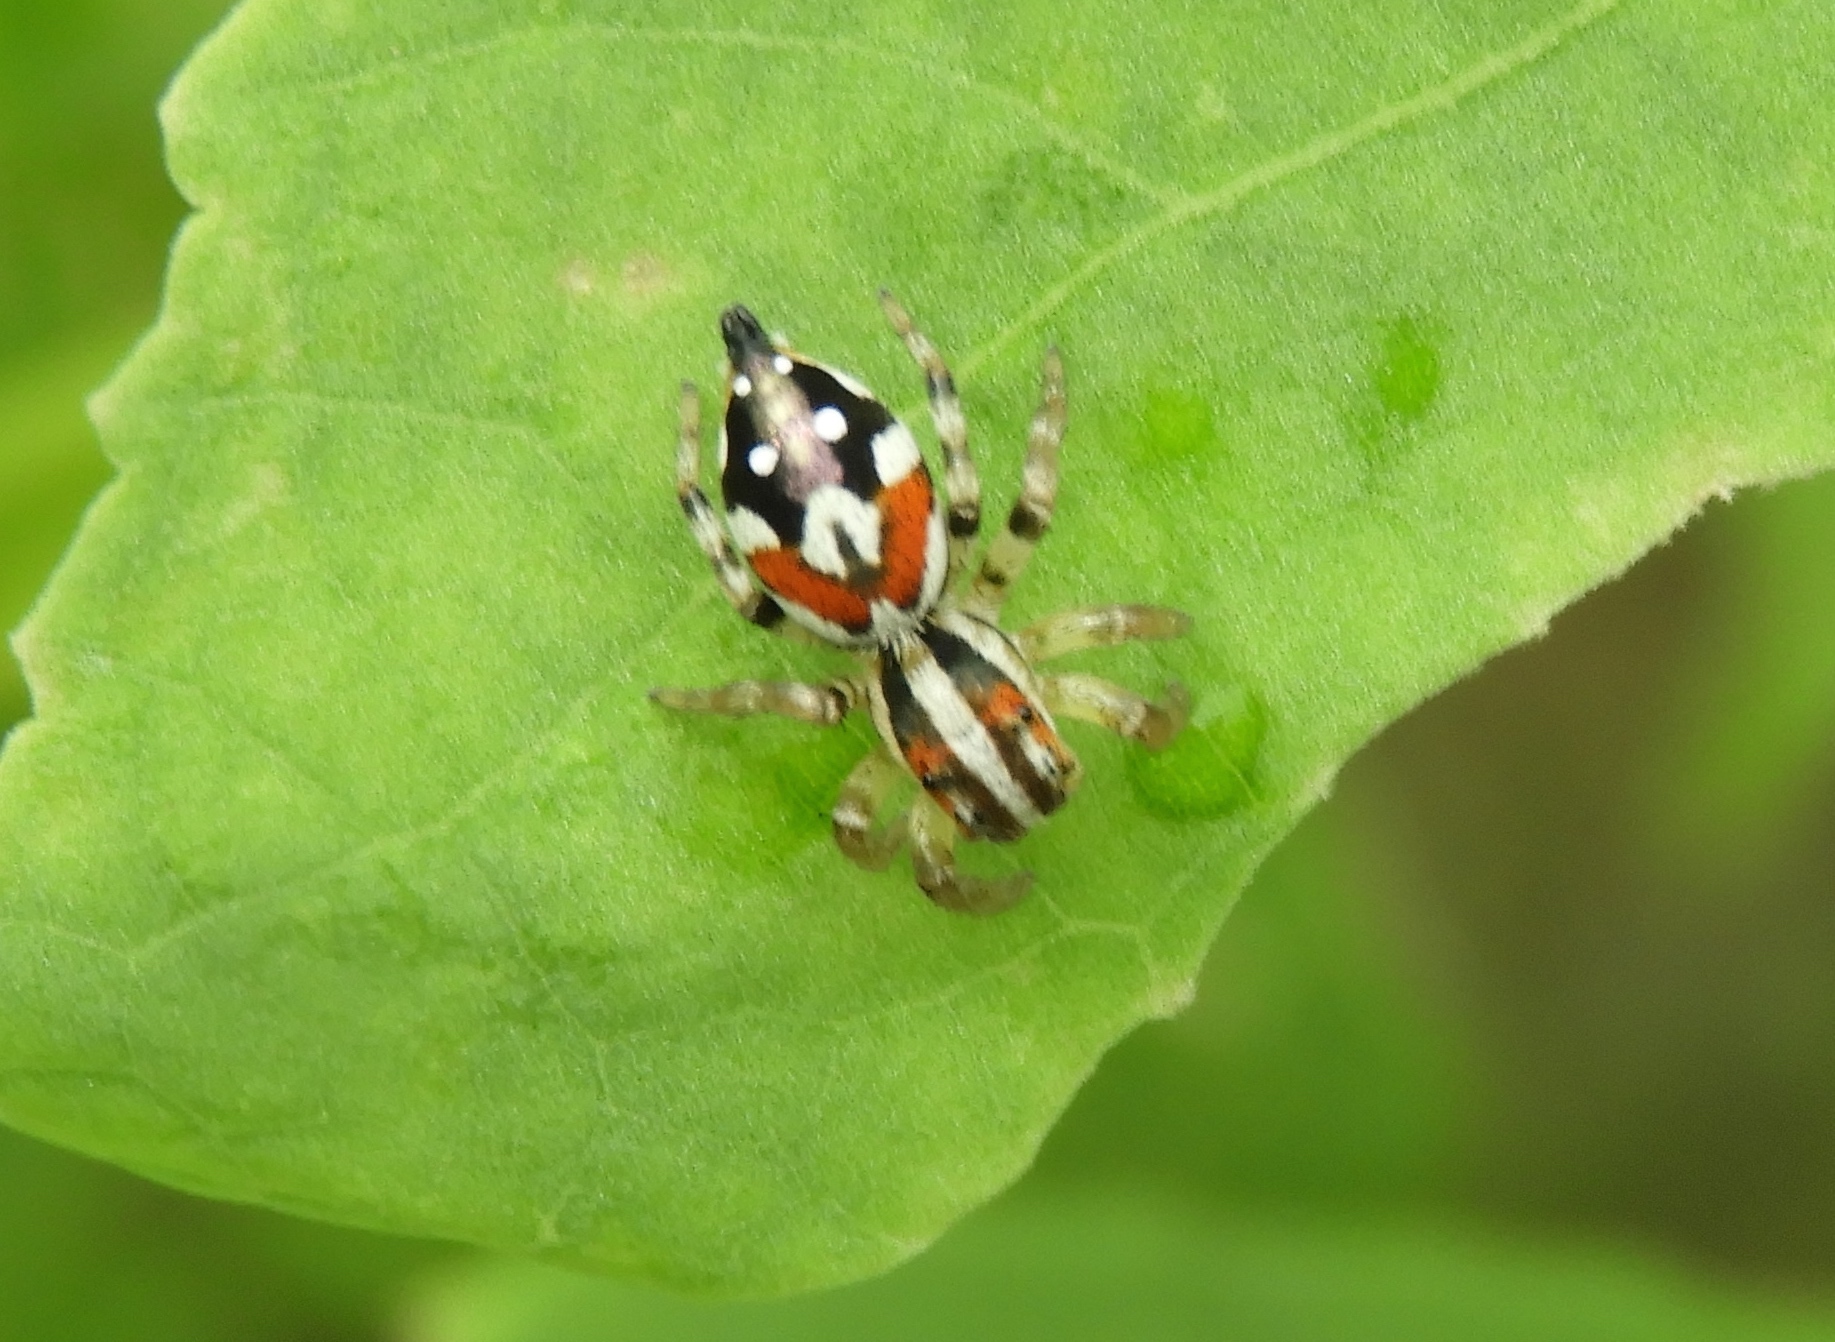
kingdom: Animalia
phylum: Arthropoda
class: Arachnida
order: Araneae
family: Salticidae
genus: Nycerella
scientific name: Nycerella delecta
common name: Jumping spiders
